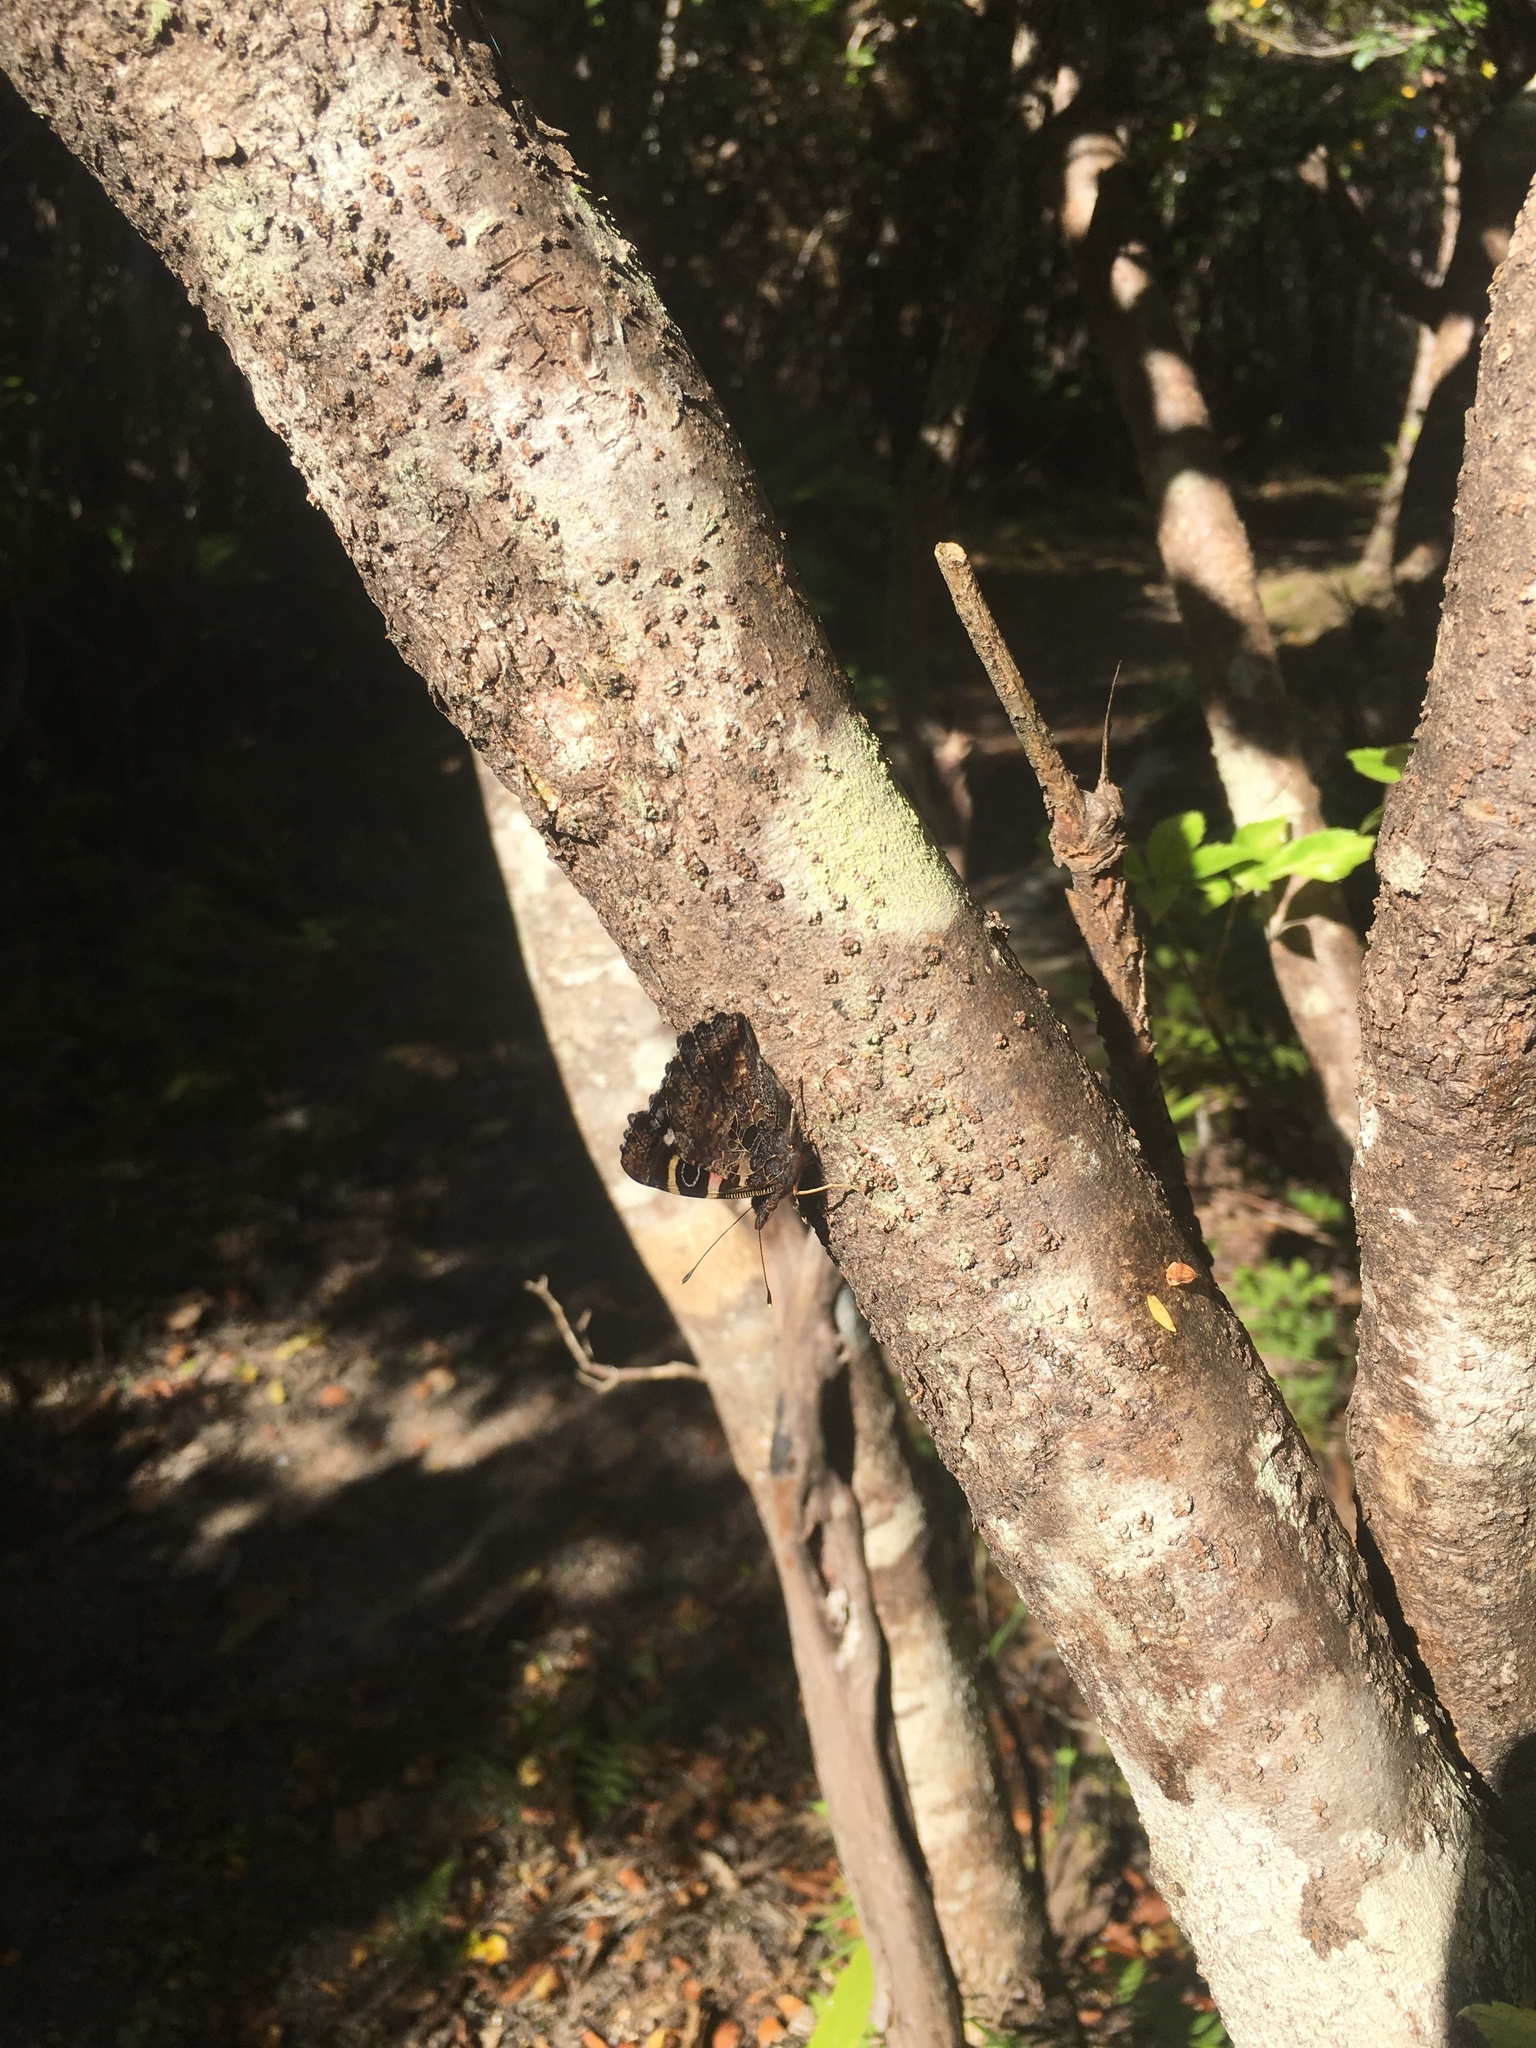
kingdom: Animalia
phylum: Arthropoda
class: Insecta
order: Lepidoptera
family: Nymphalidae
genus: Vanessa
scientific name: Vanessa gonerilla
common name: New zealand red admiral
